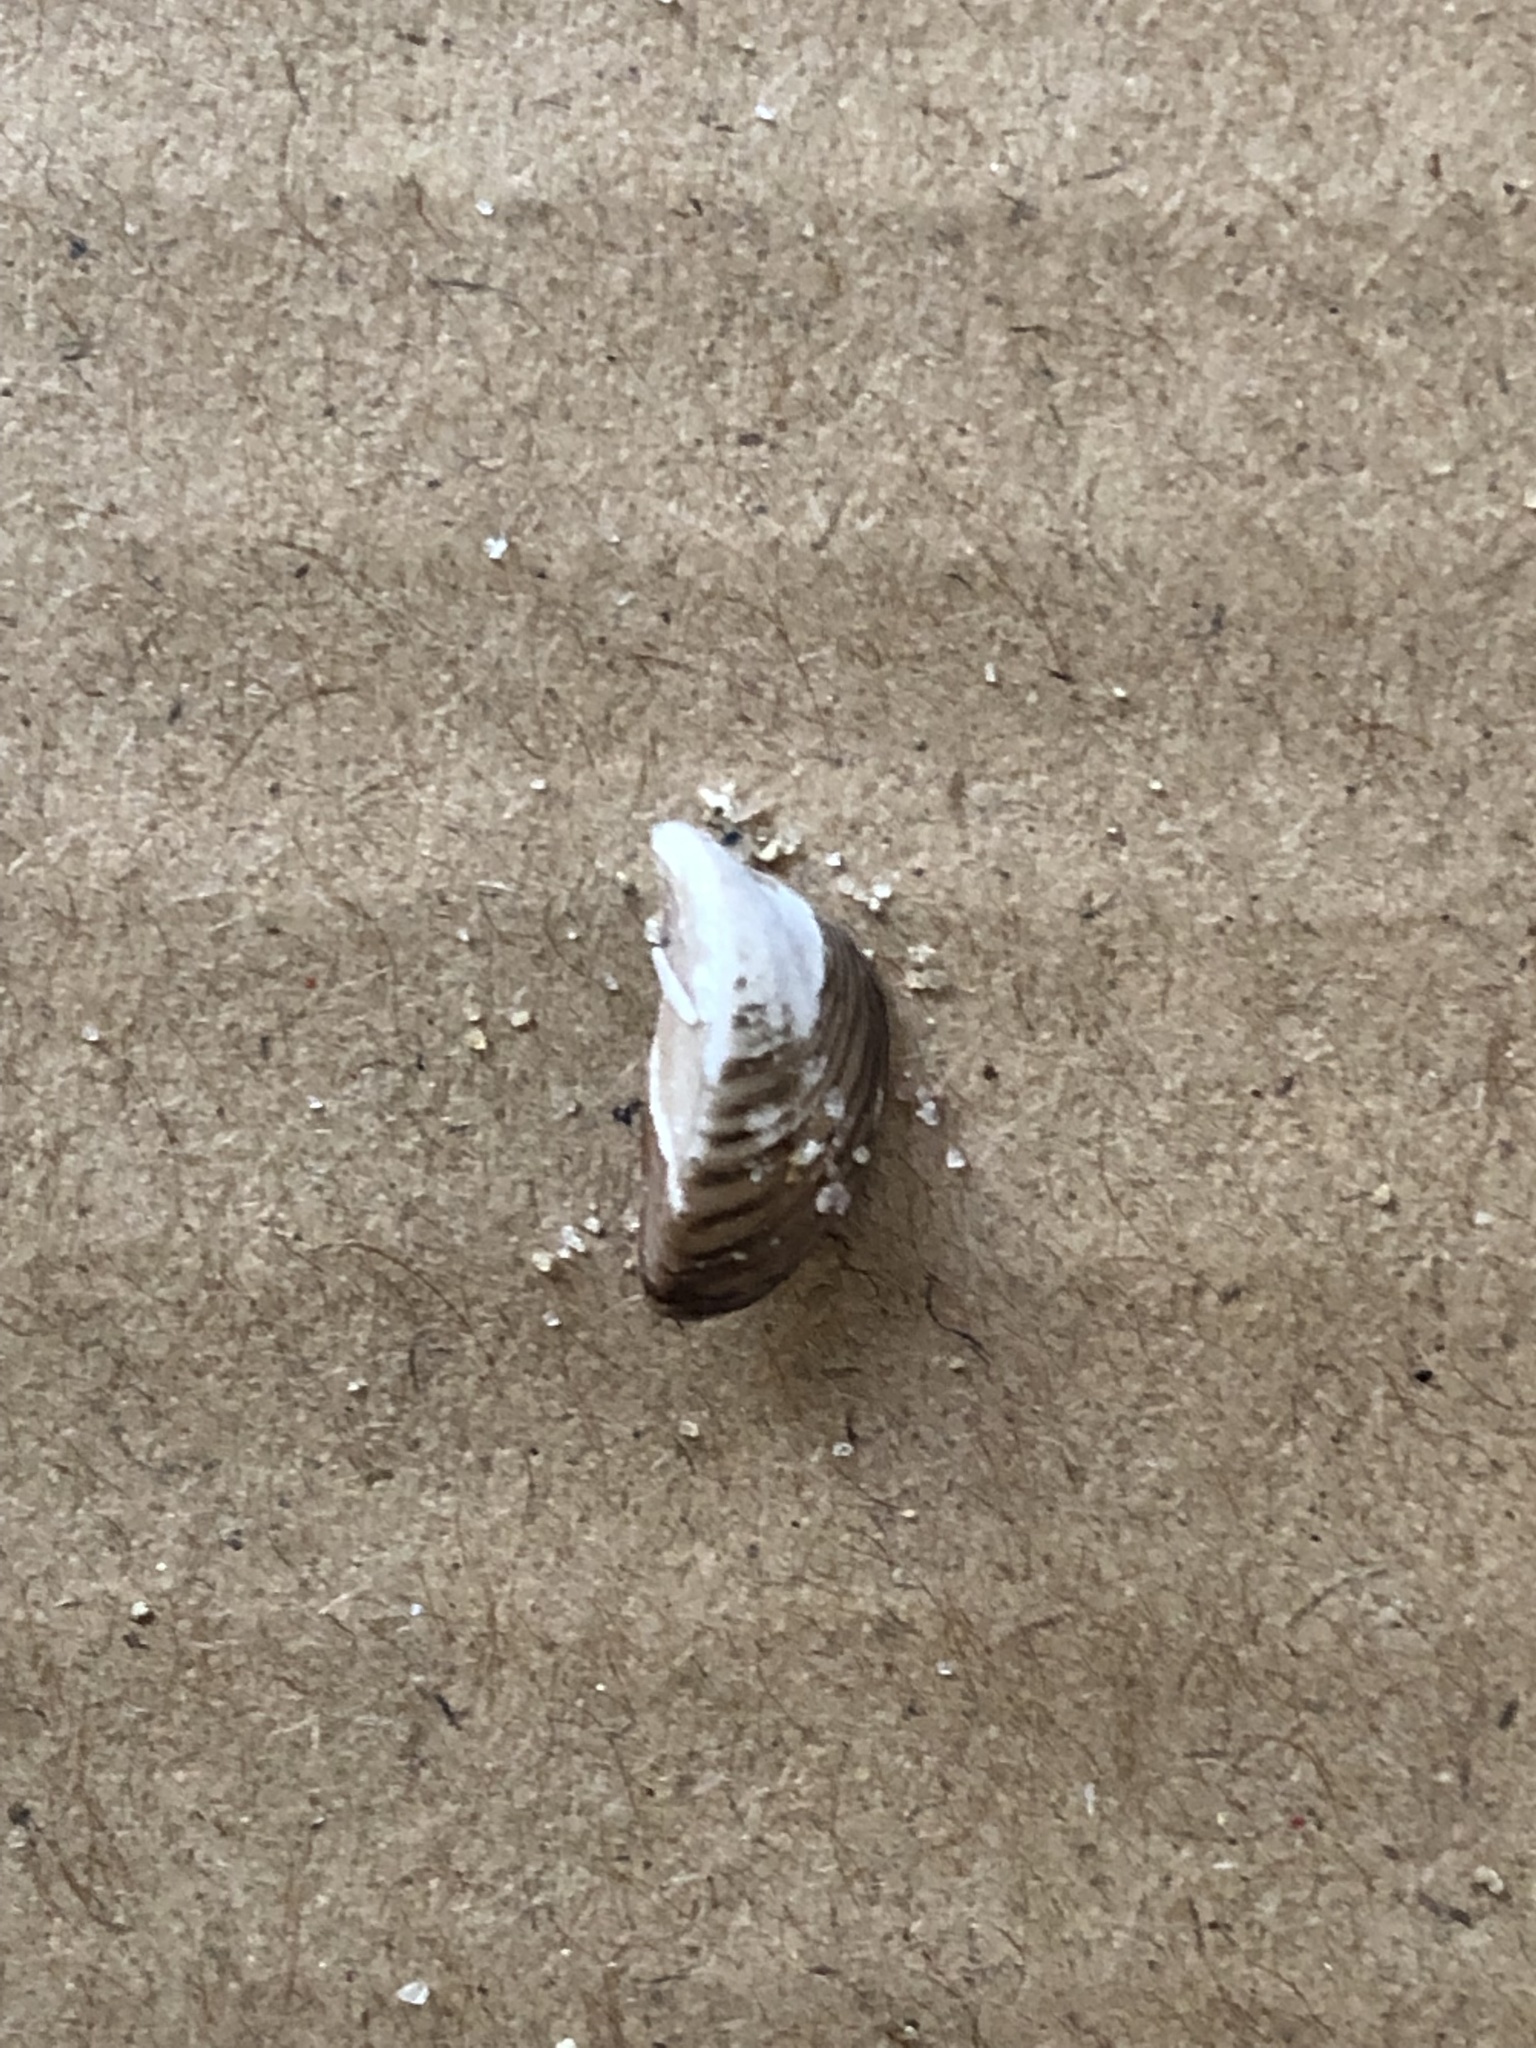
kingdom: Animalia
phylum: Mollusca
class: Bivalvia
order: Myida
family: Dreissenidae
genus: Dreissena
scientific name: Dreissena polymorpha
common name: Zebra mussel
